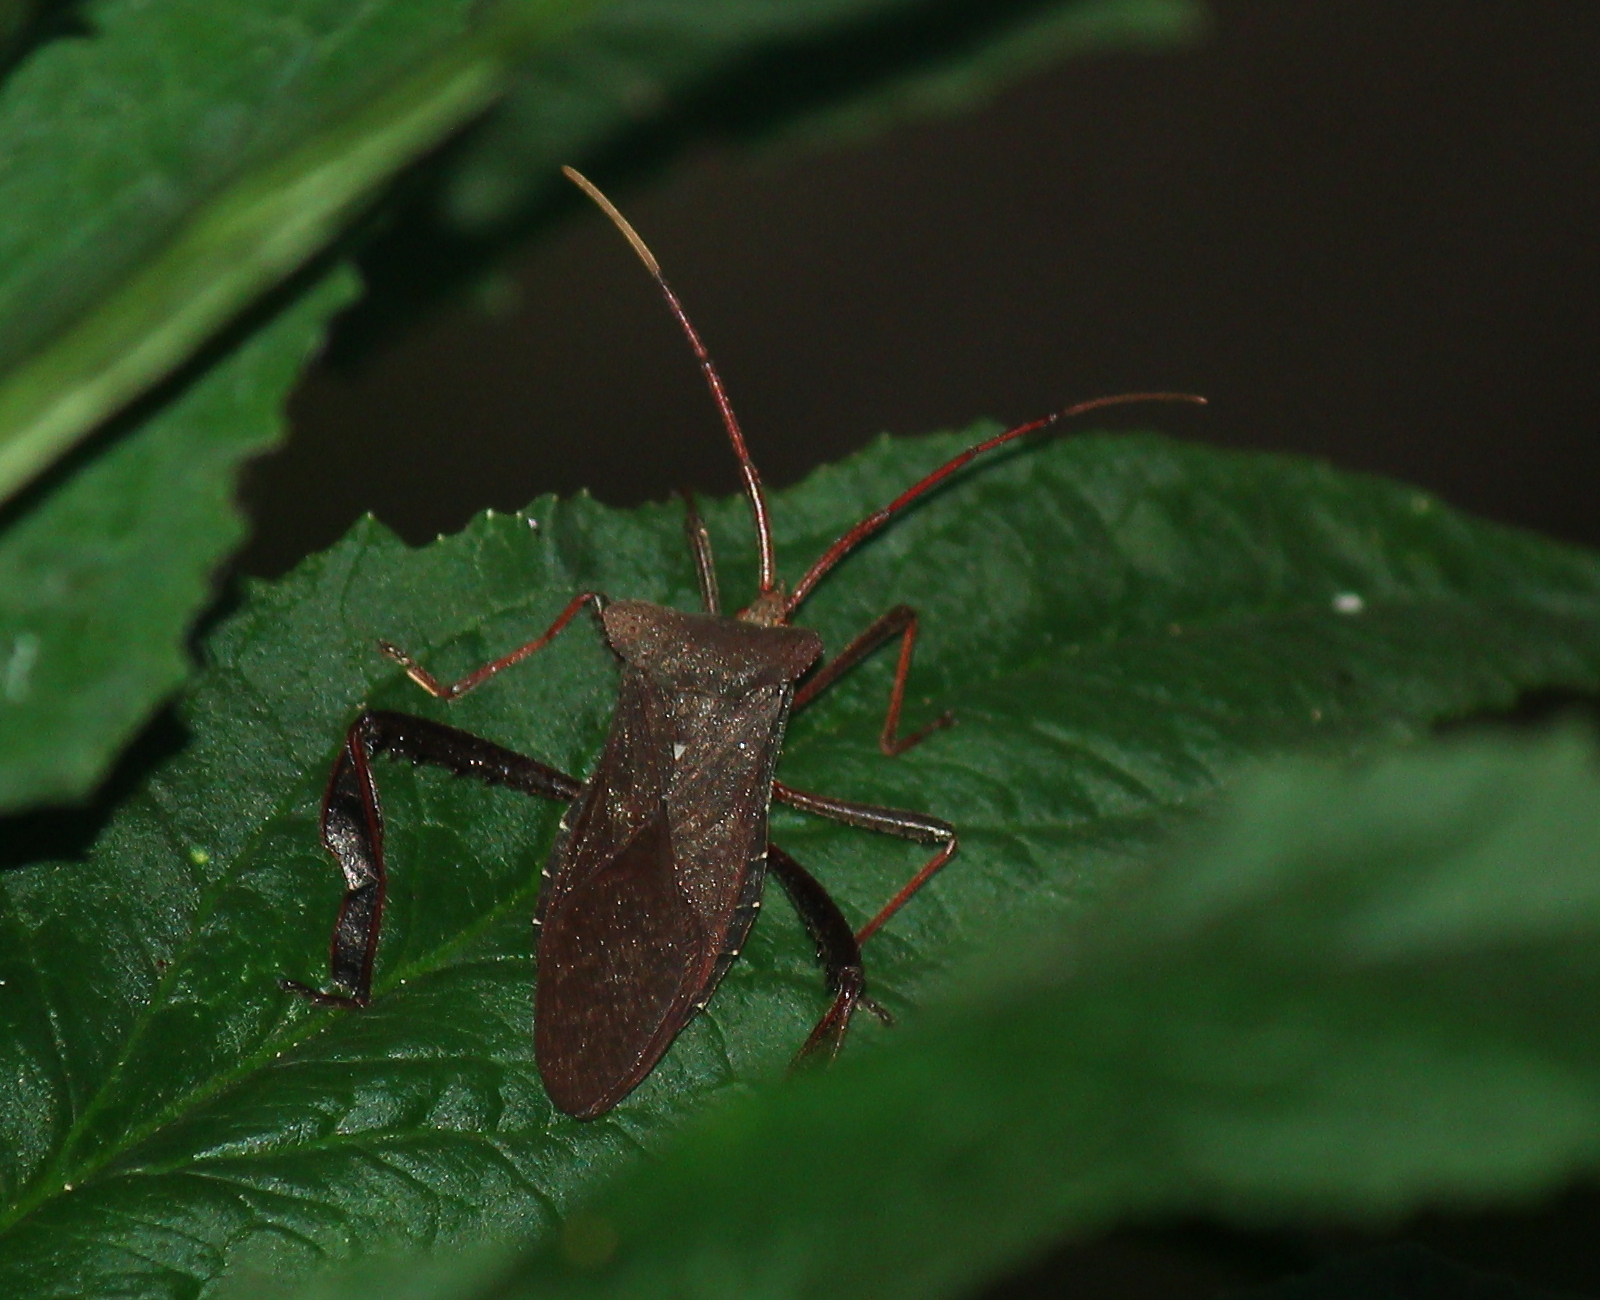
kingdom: Animalia
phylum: Arthropoda
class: Insecta
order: Hemiptera
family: Coreidae
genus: Acanthocephala
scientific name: Acanthocephala declivis
